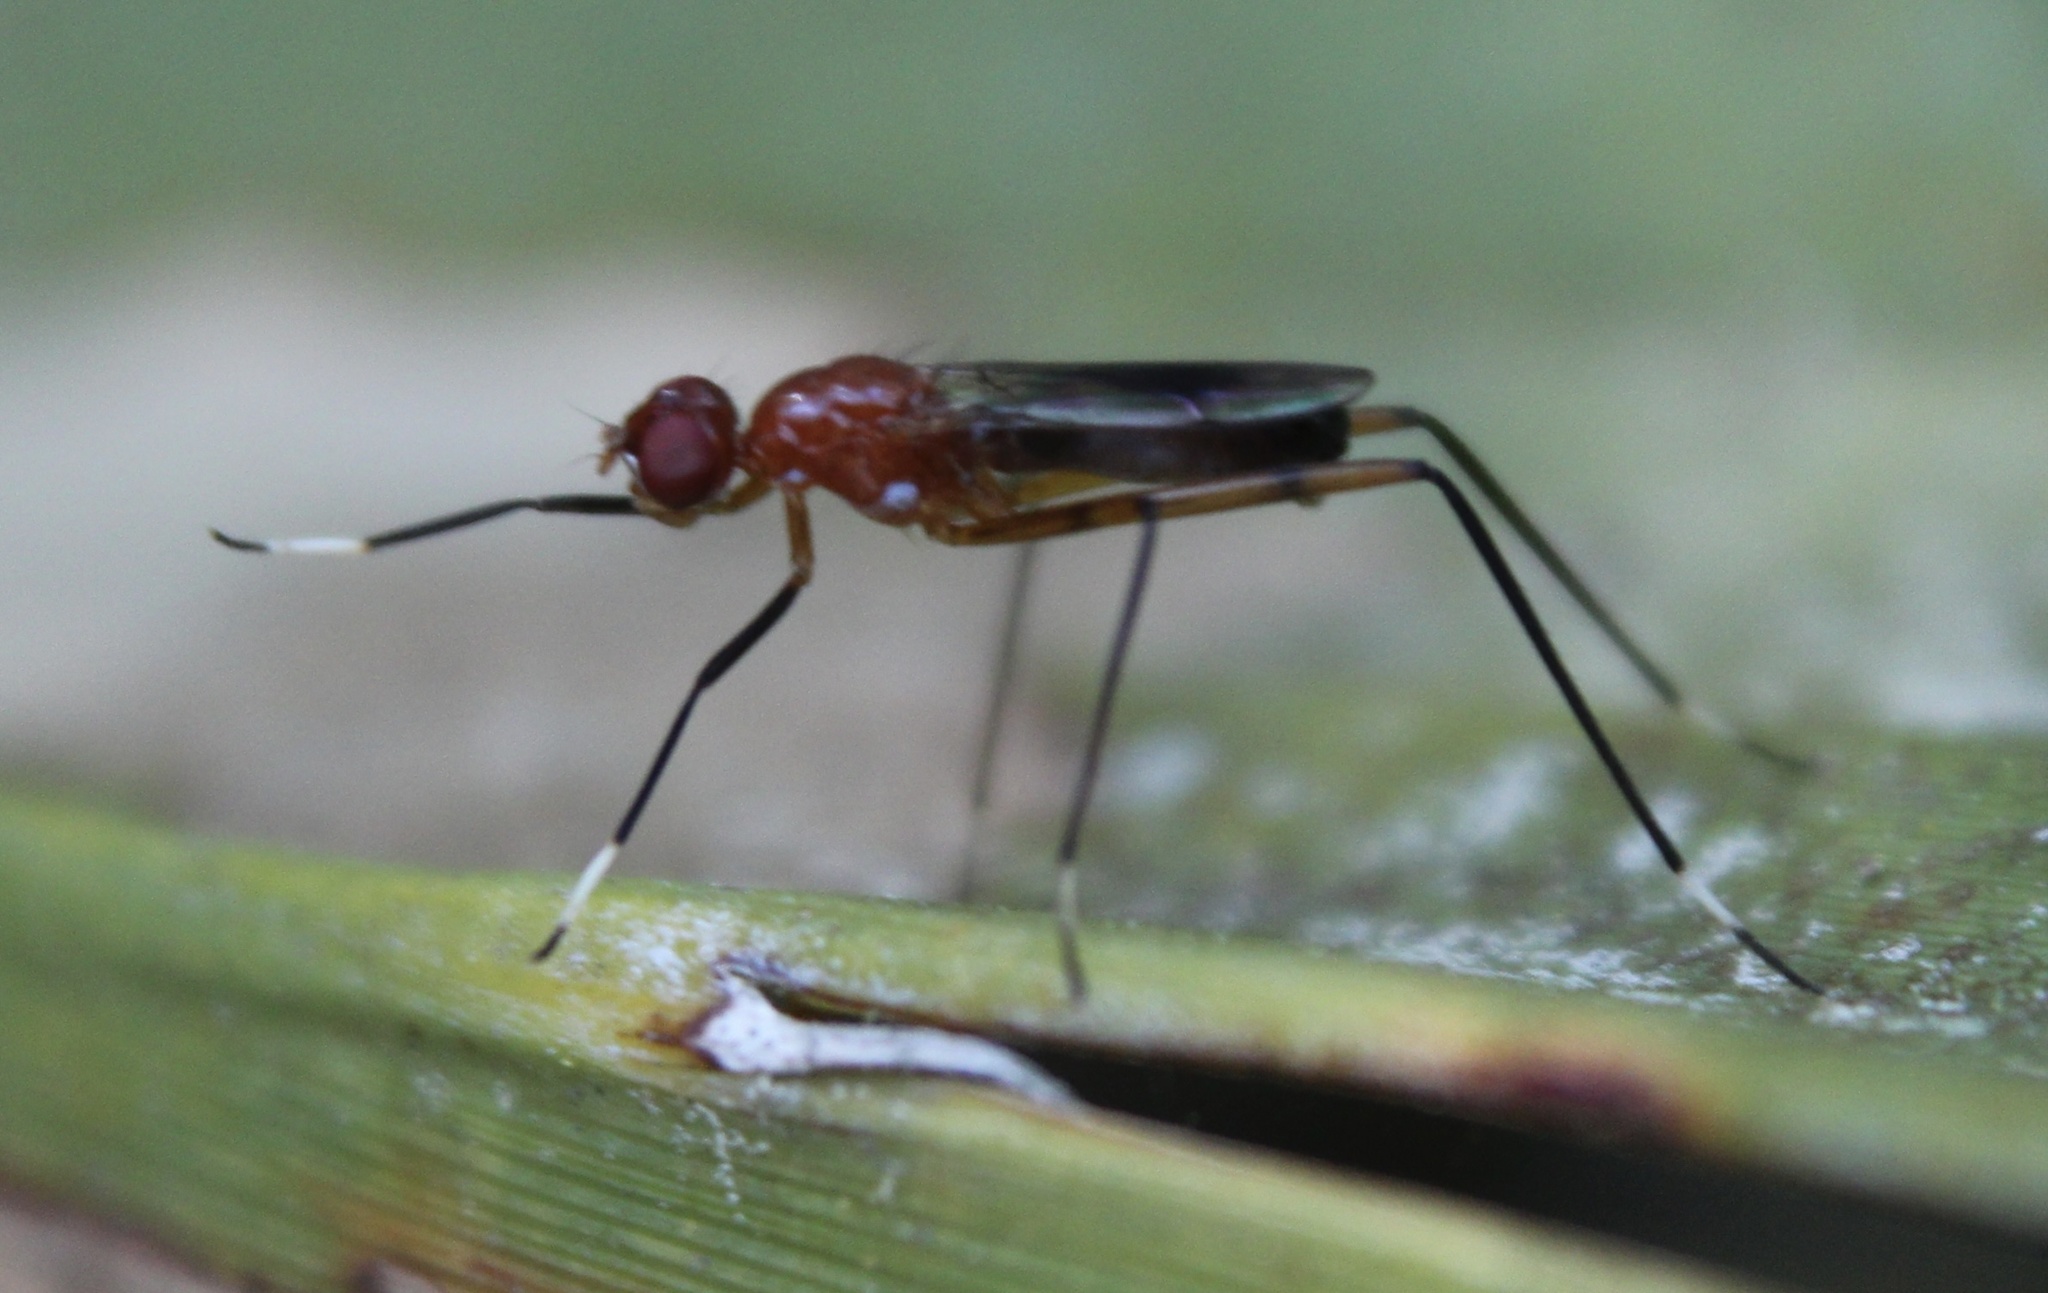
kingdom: Animalia
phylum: Arthropoda
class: Insecta
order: Diptera
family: Micropezidae
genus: Grallipeza
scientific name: Grallipeza nebulosa
